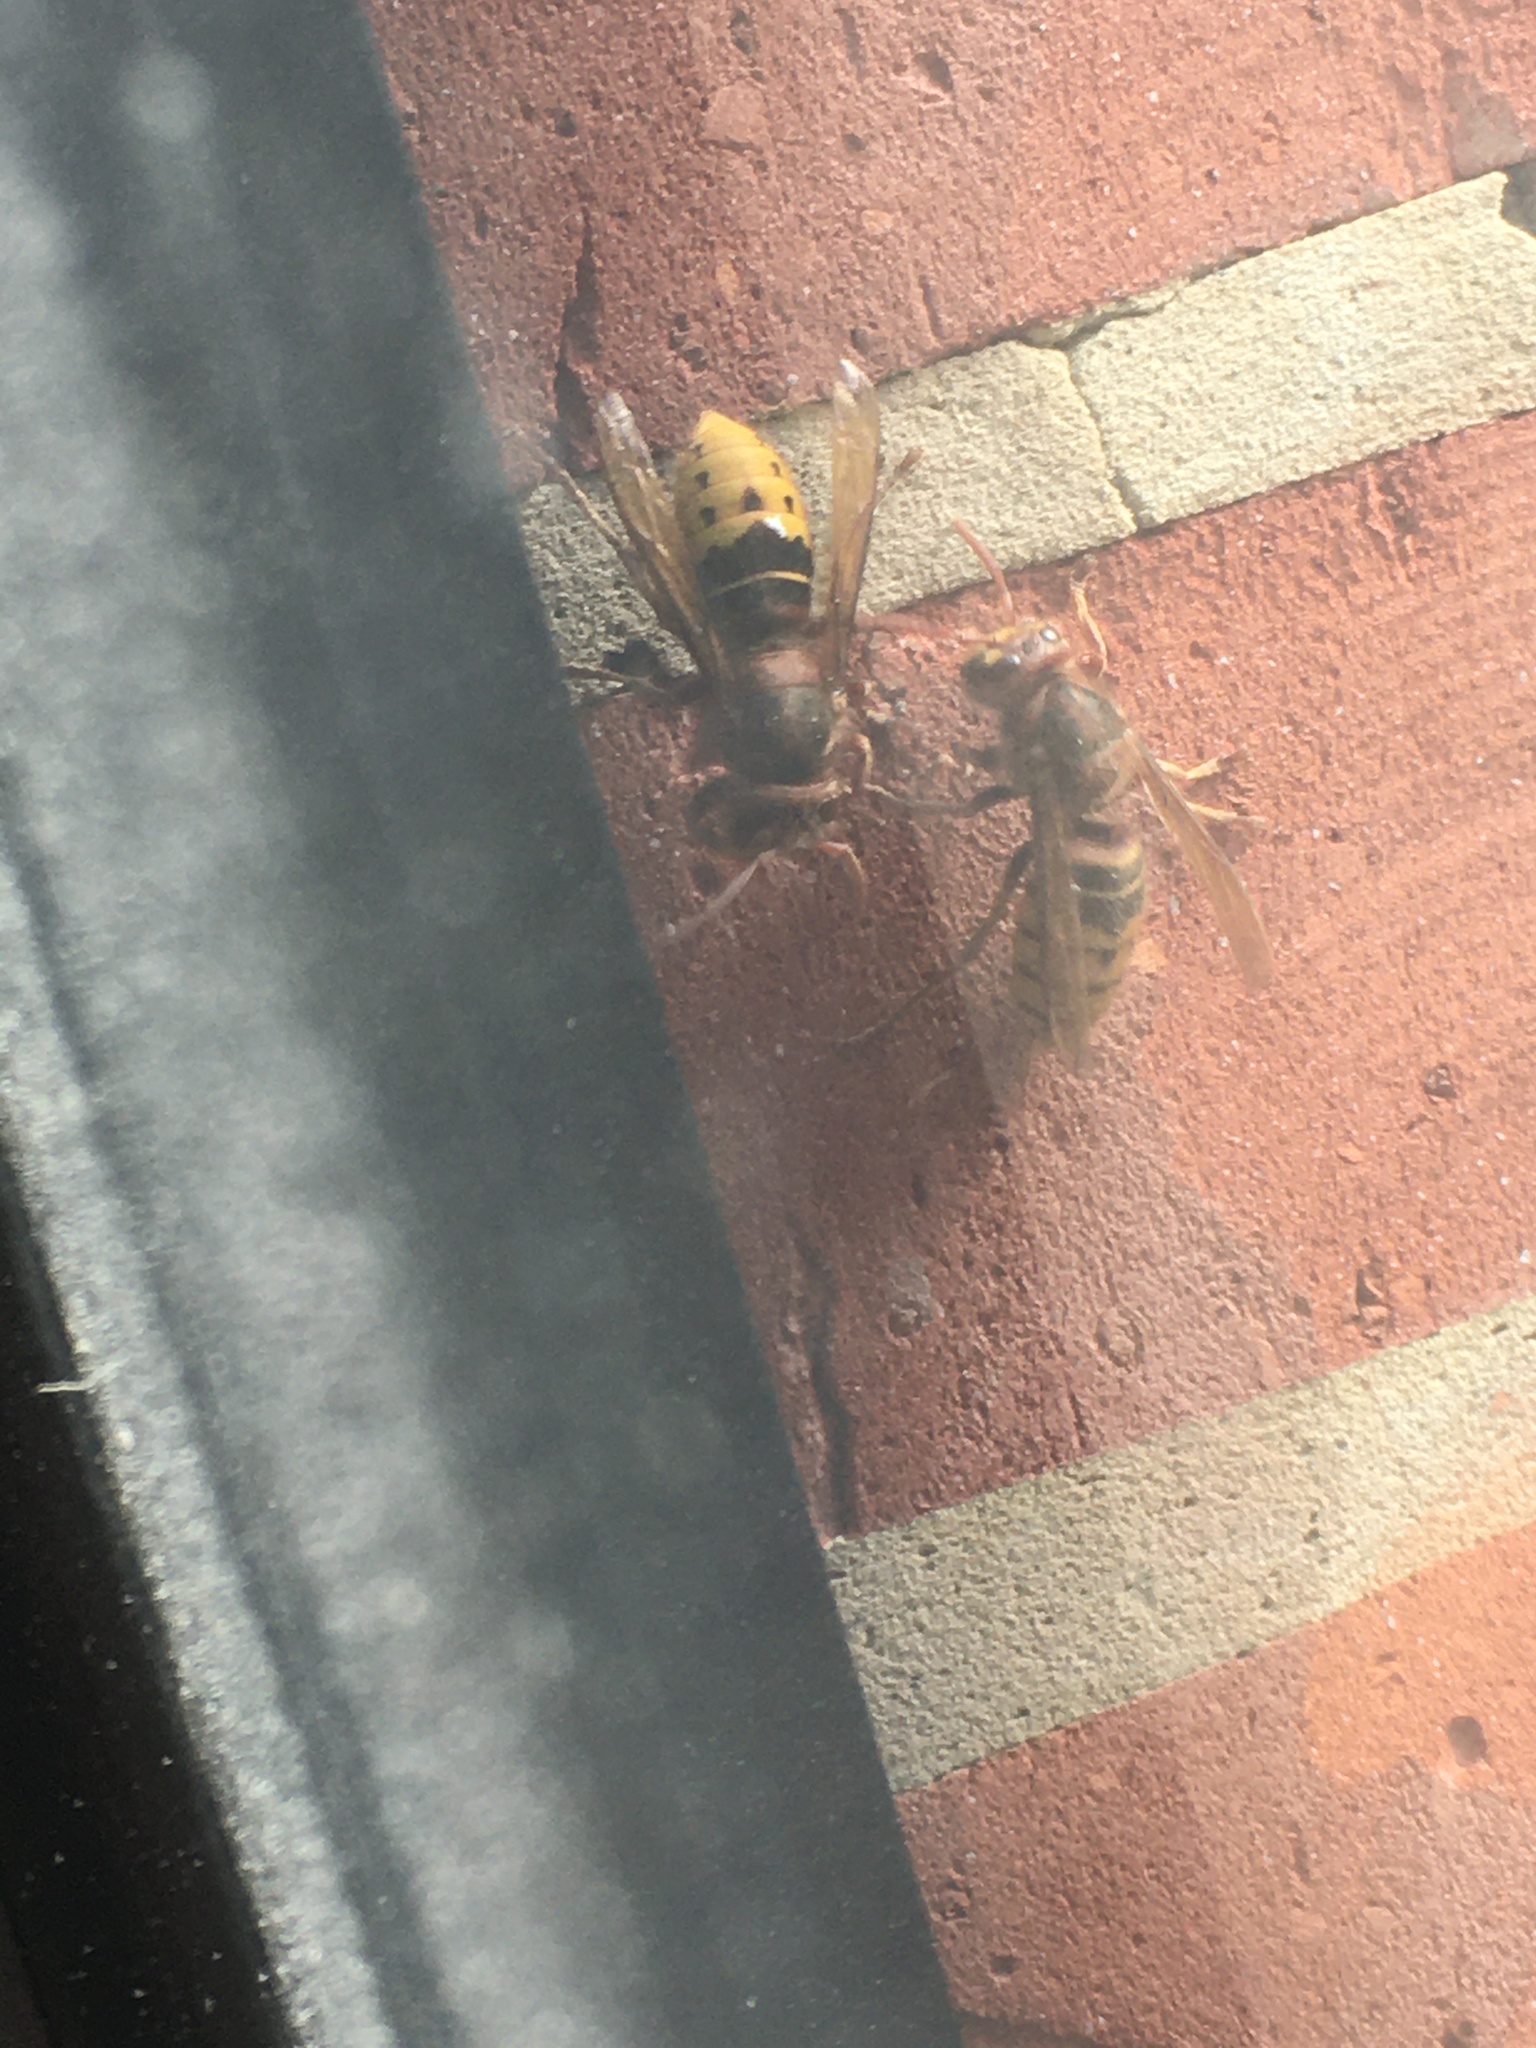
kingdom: Animalia
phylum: Arthropoda
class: Insecta
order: Hymenoptera
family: Vespidae
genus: Vespa
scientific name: Vespa crabro
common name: Hornet
